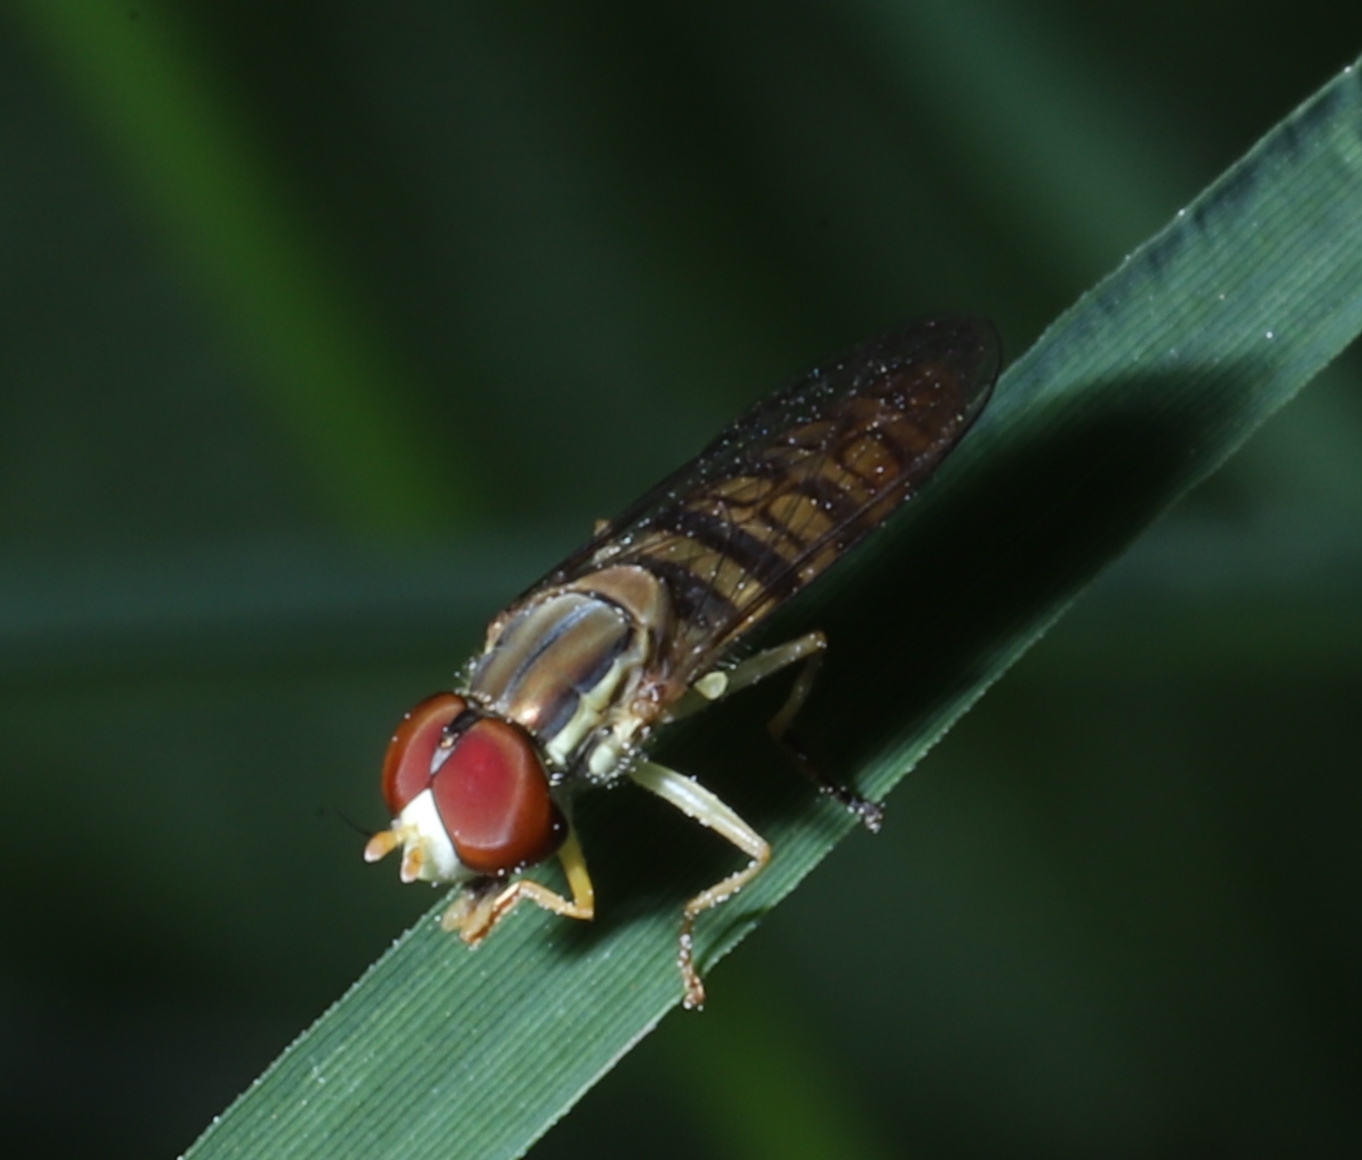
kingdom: Animalia
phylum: Arthropoda
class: Insecta
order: Diptera
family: Syrphidae
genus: Toxomerus
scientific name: Toxomerus politus
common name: Maize calligrapher
